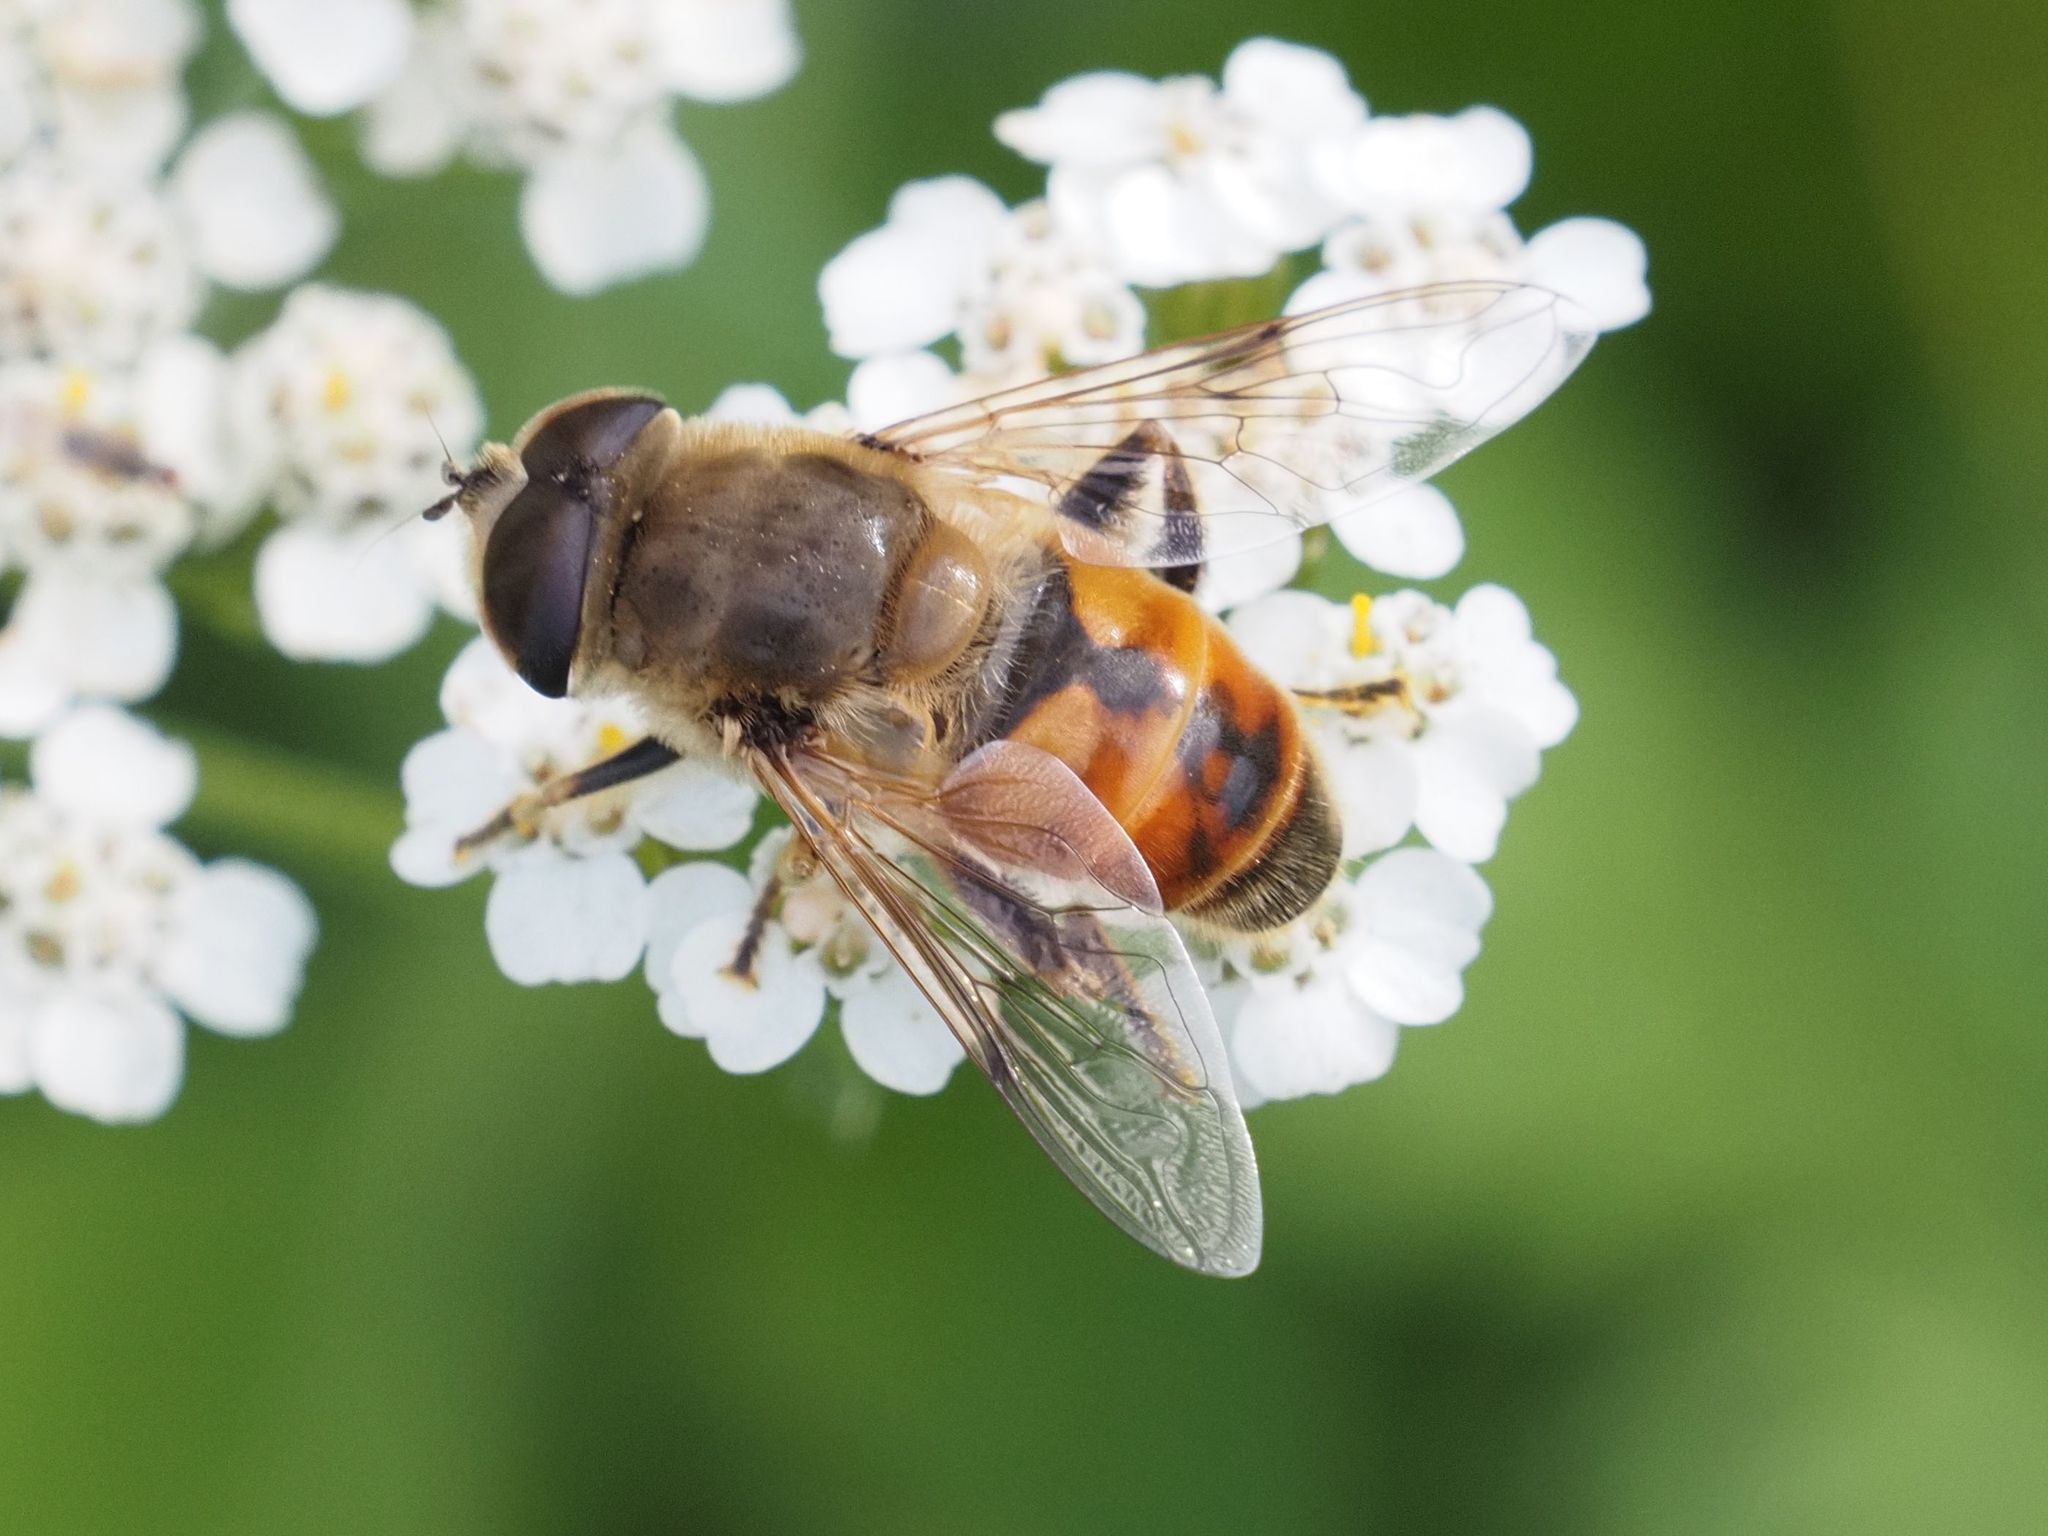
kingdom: Animalia
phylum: Arthropoda
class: Insecta
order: Diptera
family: Syrphidae
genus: Eristalis
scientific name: Eristalis tenax
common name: Drone fly
